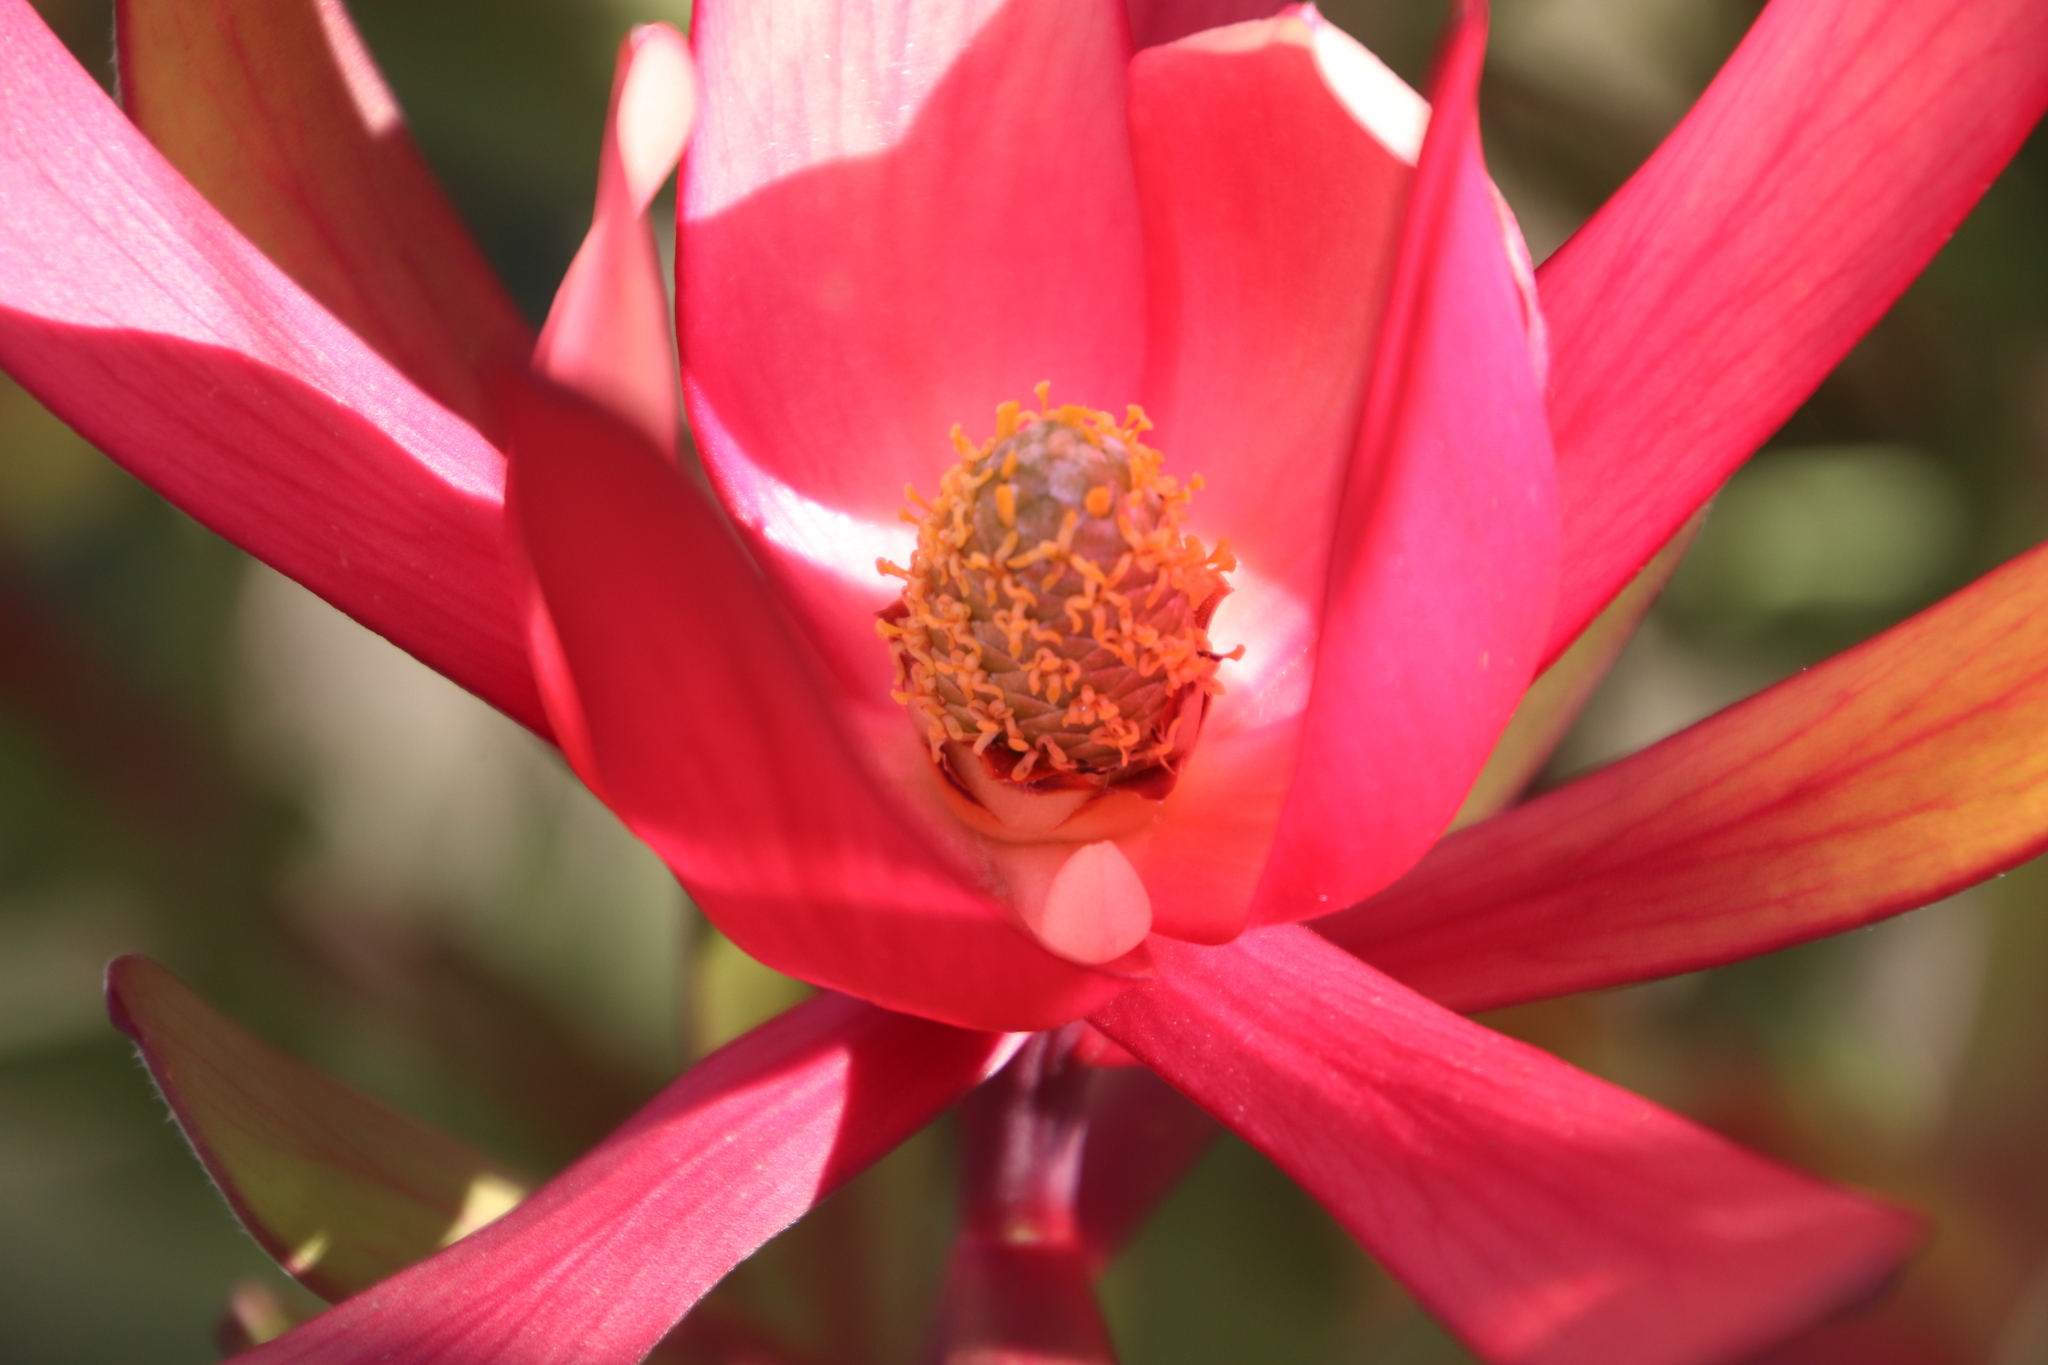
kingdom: Plantae
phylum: Tracheophyta
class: Magnoliopsida
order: Proteales
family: Proteaceae
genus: Leucadendron
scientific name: Leucadendron
